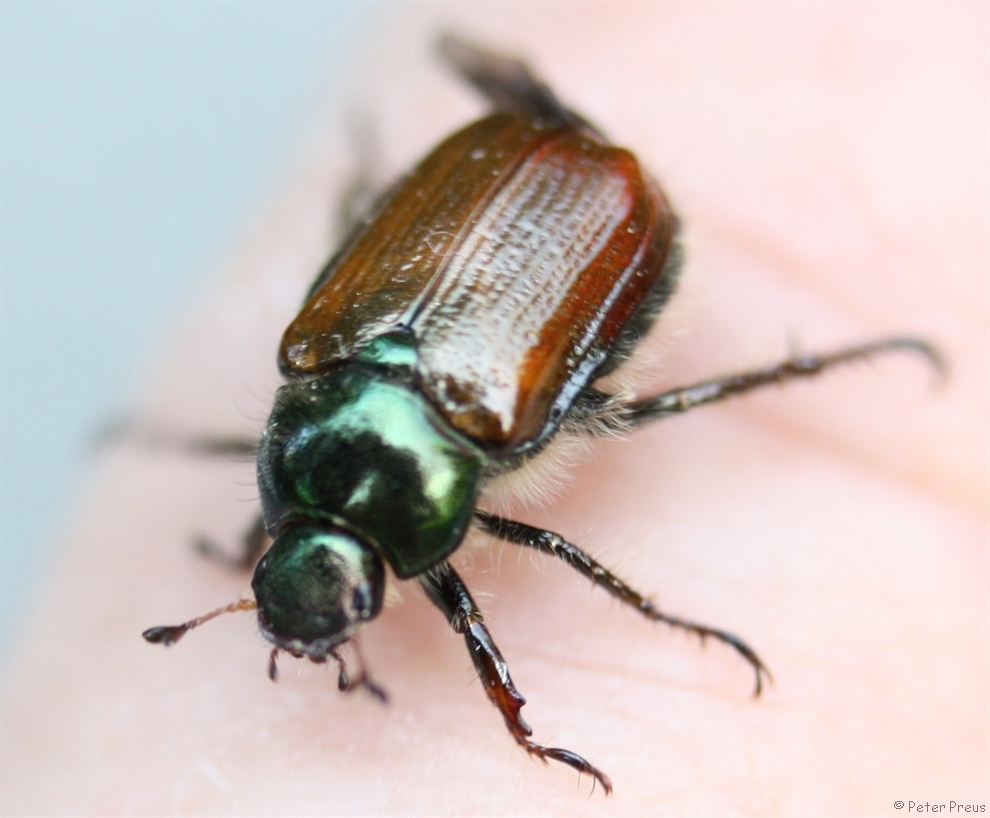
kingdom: Animalia
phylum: Arthropoda
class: Insecta
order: Coleoptera
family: Scarabaeidae
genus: Phyllopertha
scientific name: Phyllopertha horticola
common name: Garden chafer
